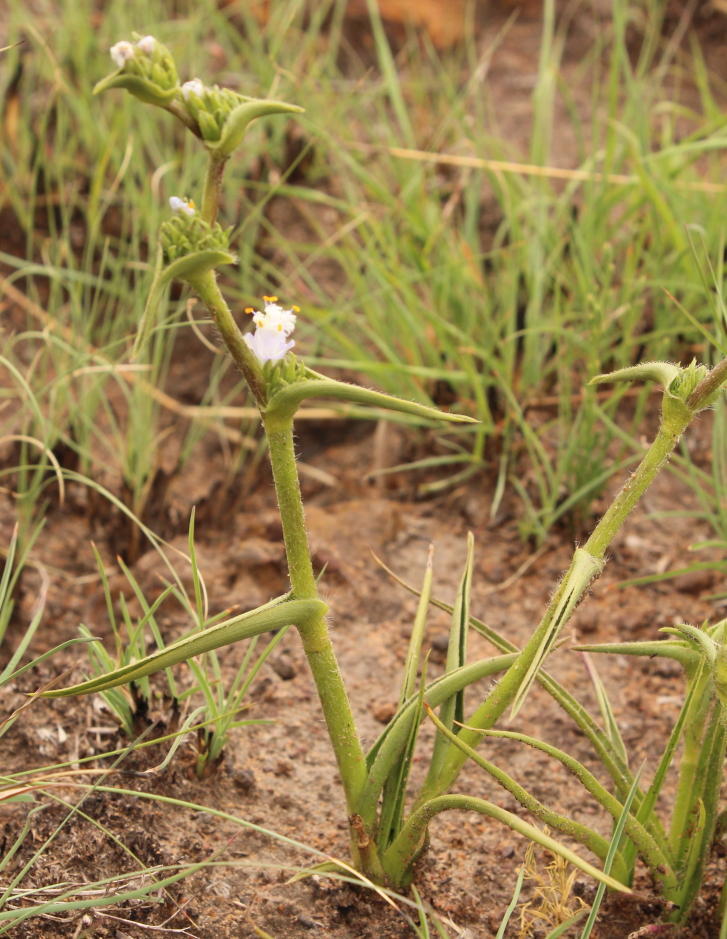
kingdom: Plantae
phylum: Tracheophyta
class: Liliopsida
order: Commelinales
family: Commelinaceae
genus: Cyanotis
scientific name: Cyanotis speciosa
